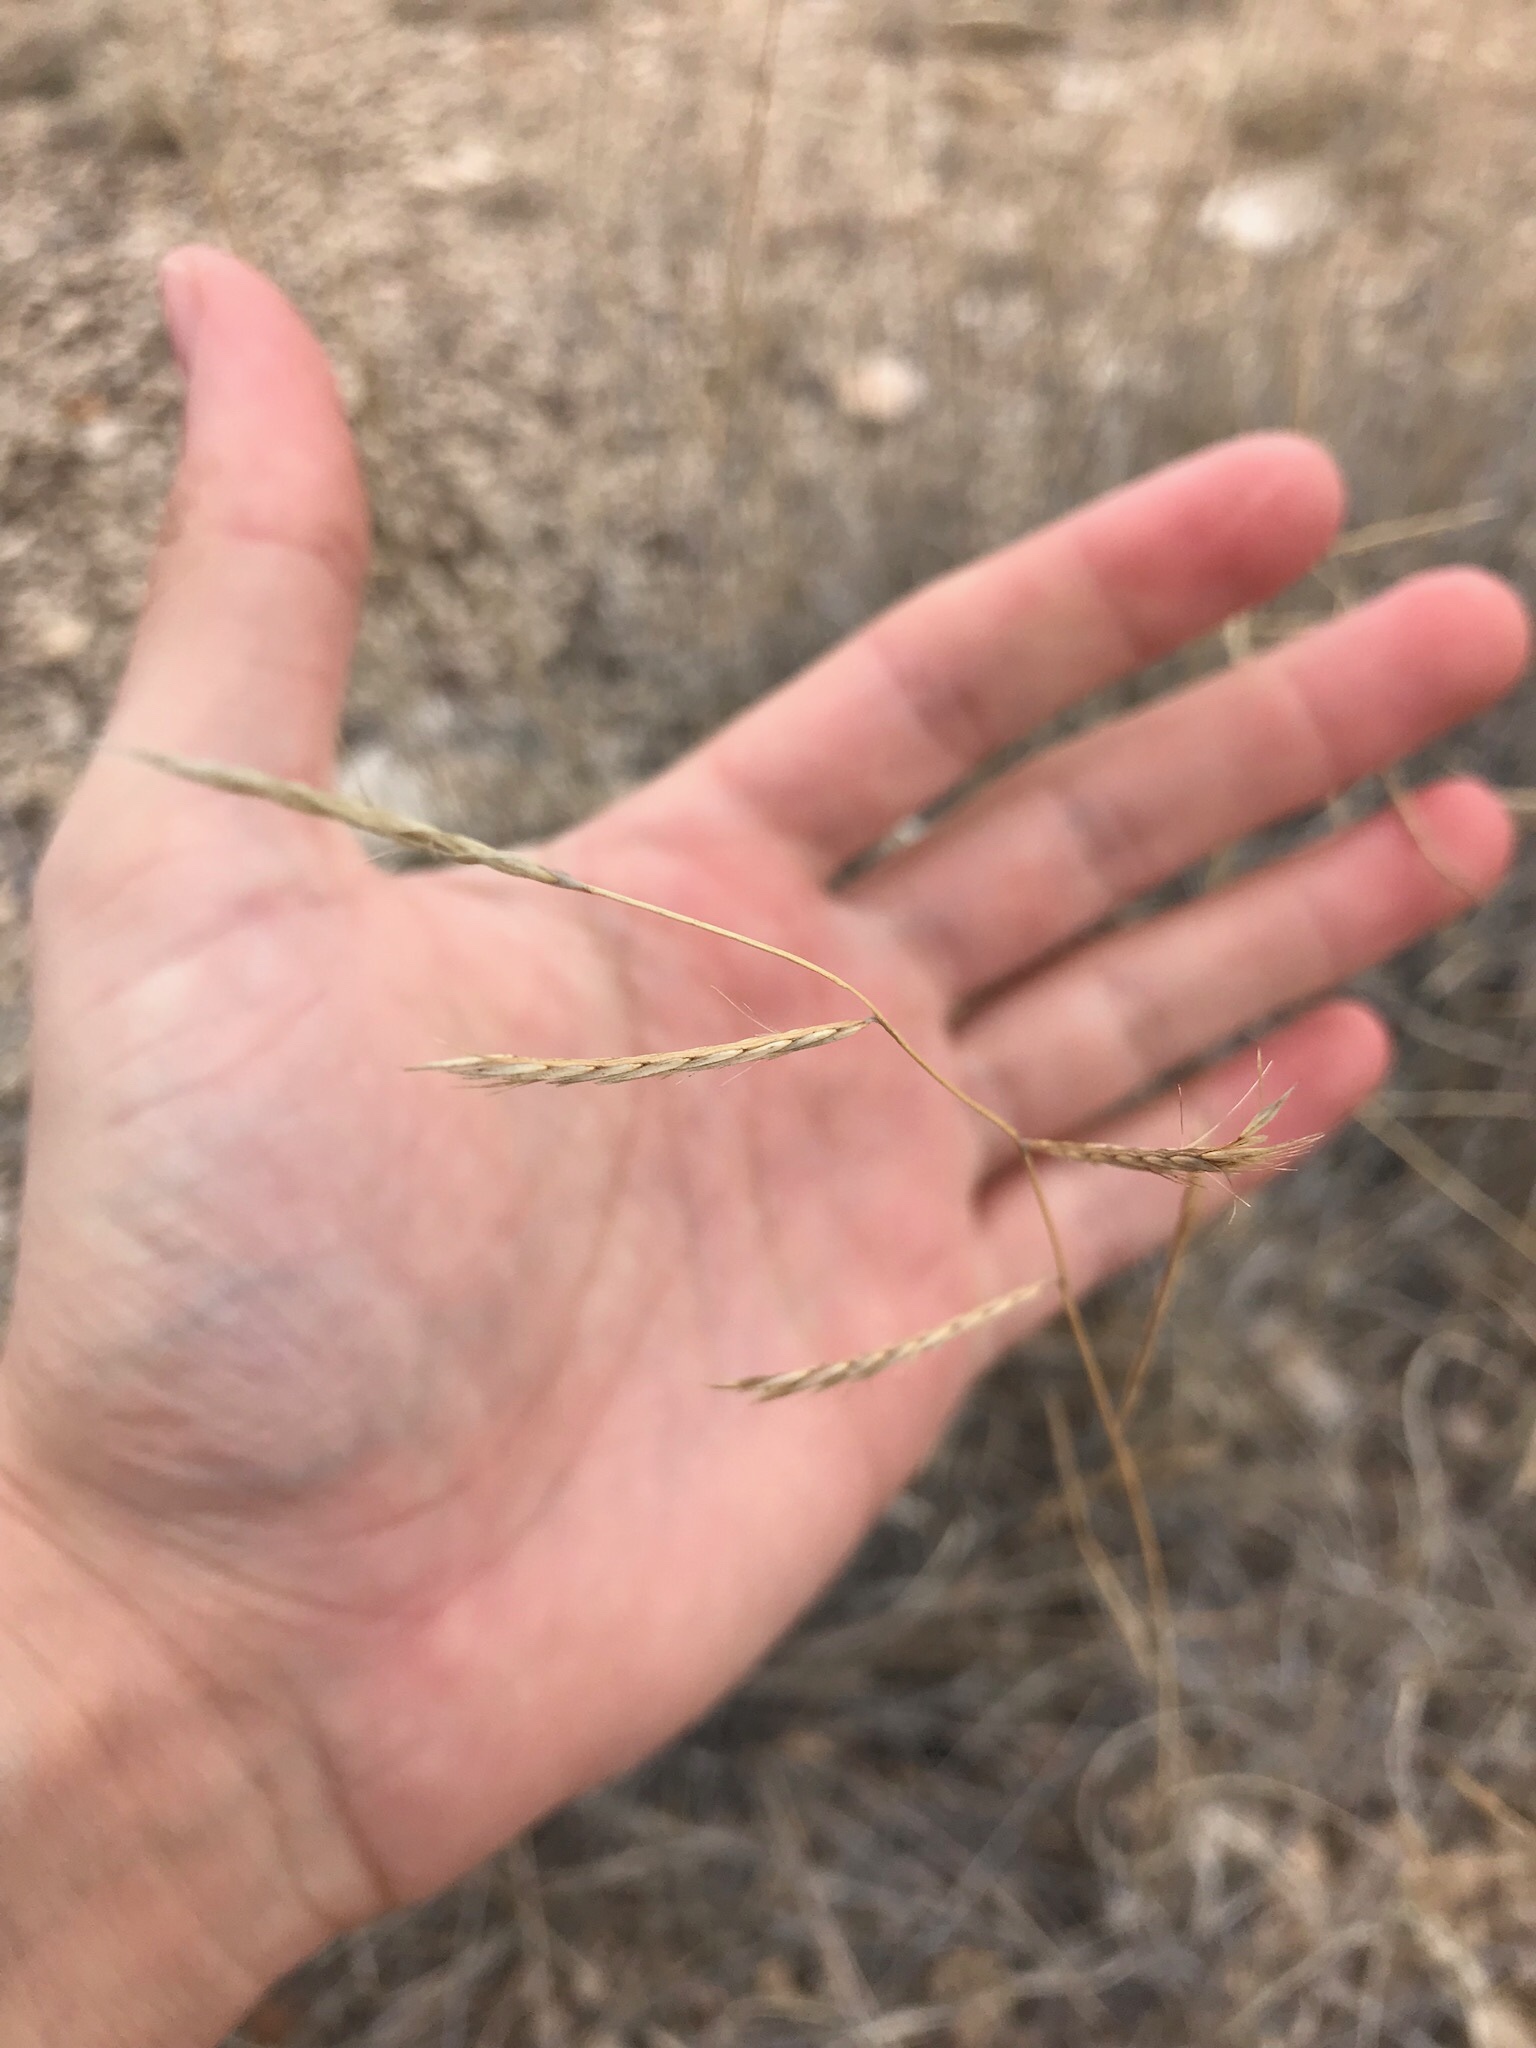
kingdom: Plantae
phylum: Tracheophyta
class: Liliopsida
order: Poales
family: Poaceae
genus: Bouteloua
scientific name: Bouteloua eriopoda
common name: Woolly foot grama
